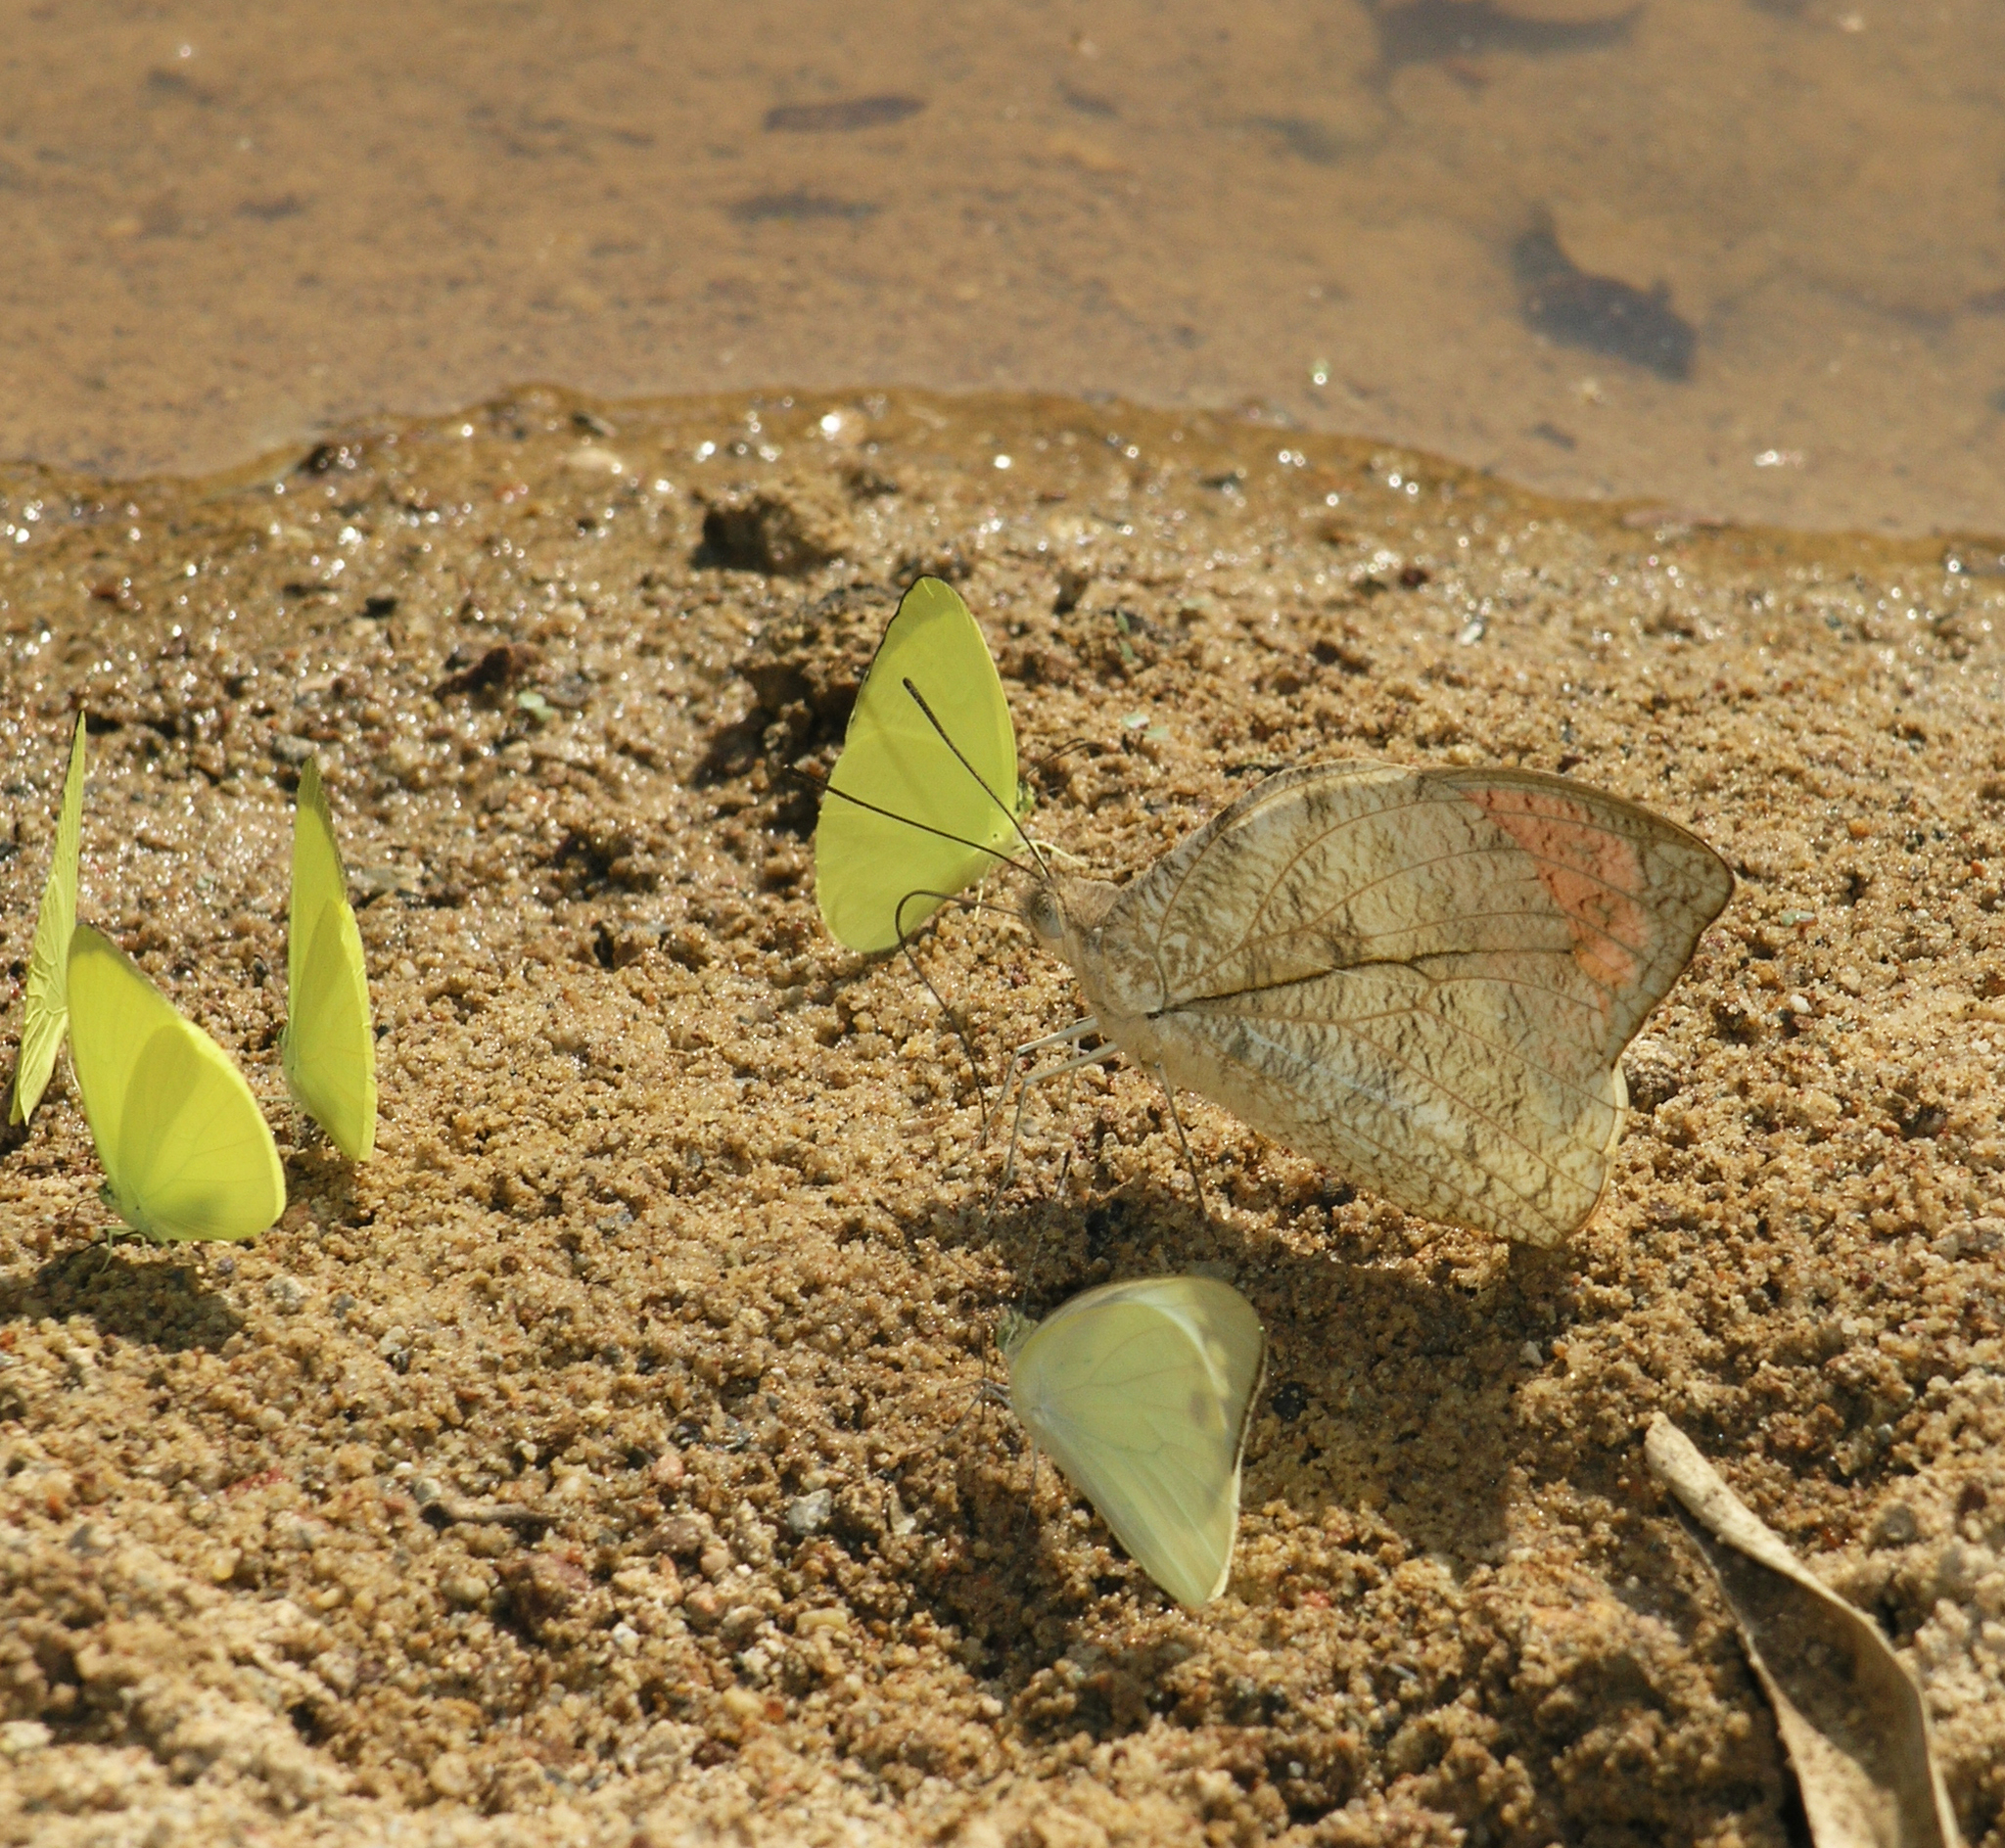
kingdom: Animalia
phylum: Arthropoda
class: Insecta
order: Lepidoptera
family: Pieridae
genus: Gandaca
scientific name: Gandaca harina
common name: Tree yellow
